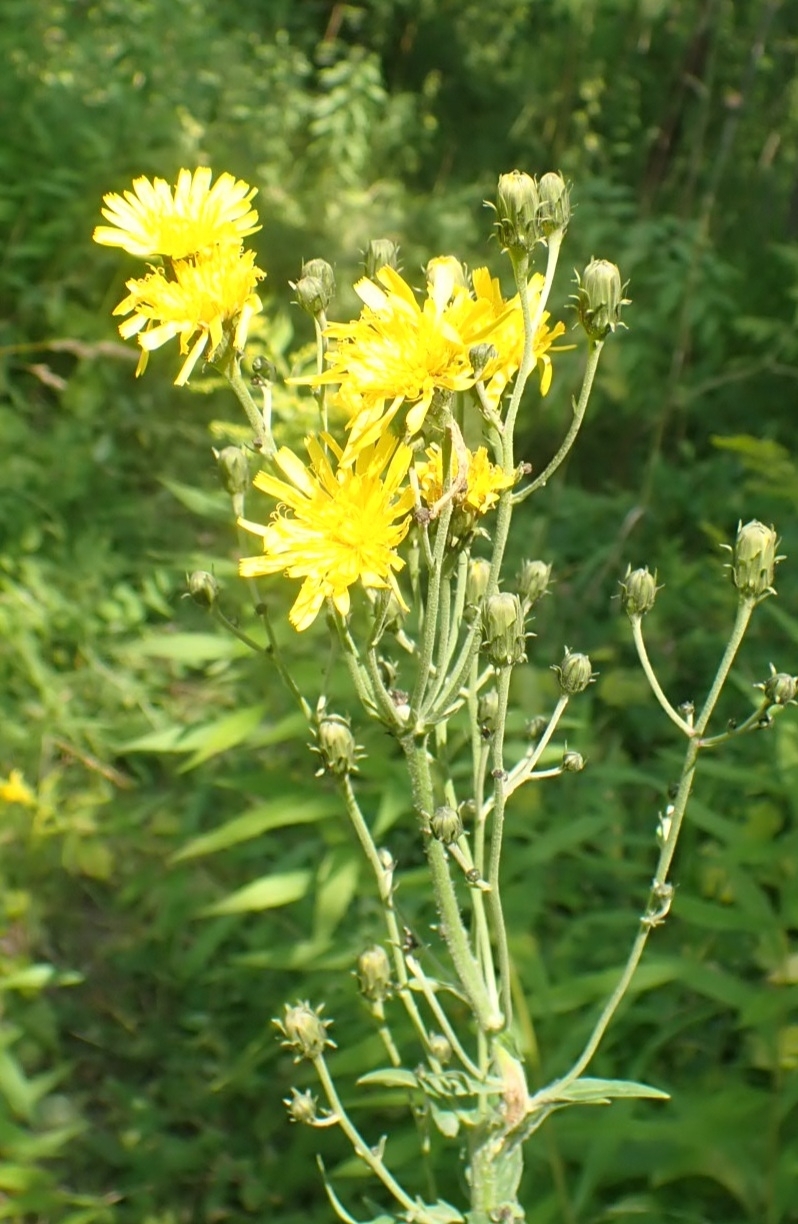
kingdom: Plantae
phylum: Tracheophyta
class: Magnoliopsida
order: Asterales
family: Asteraceae
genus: Hieracium
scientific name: Hieracium umbellatum
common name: Northern hawkweed
